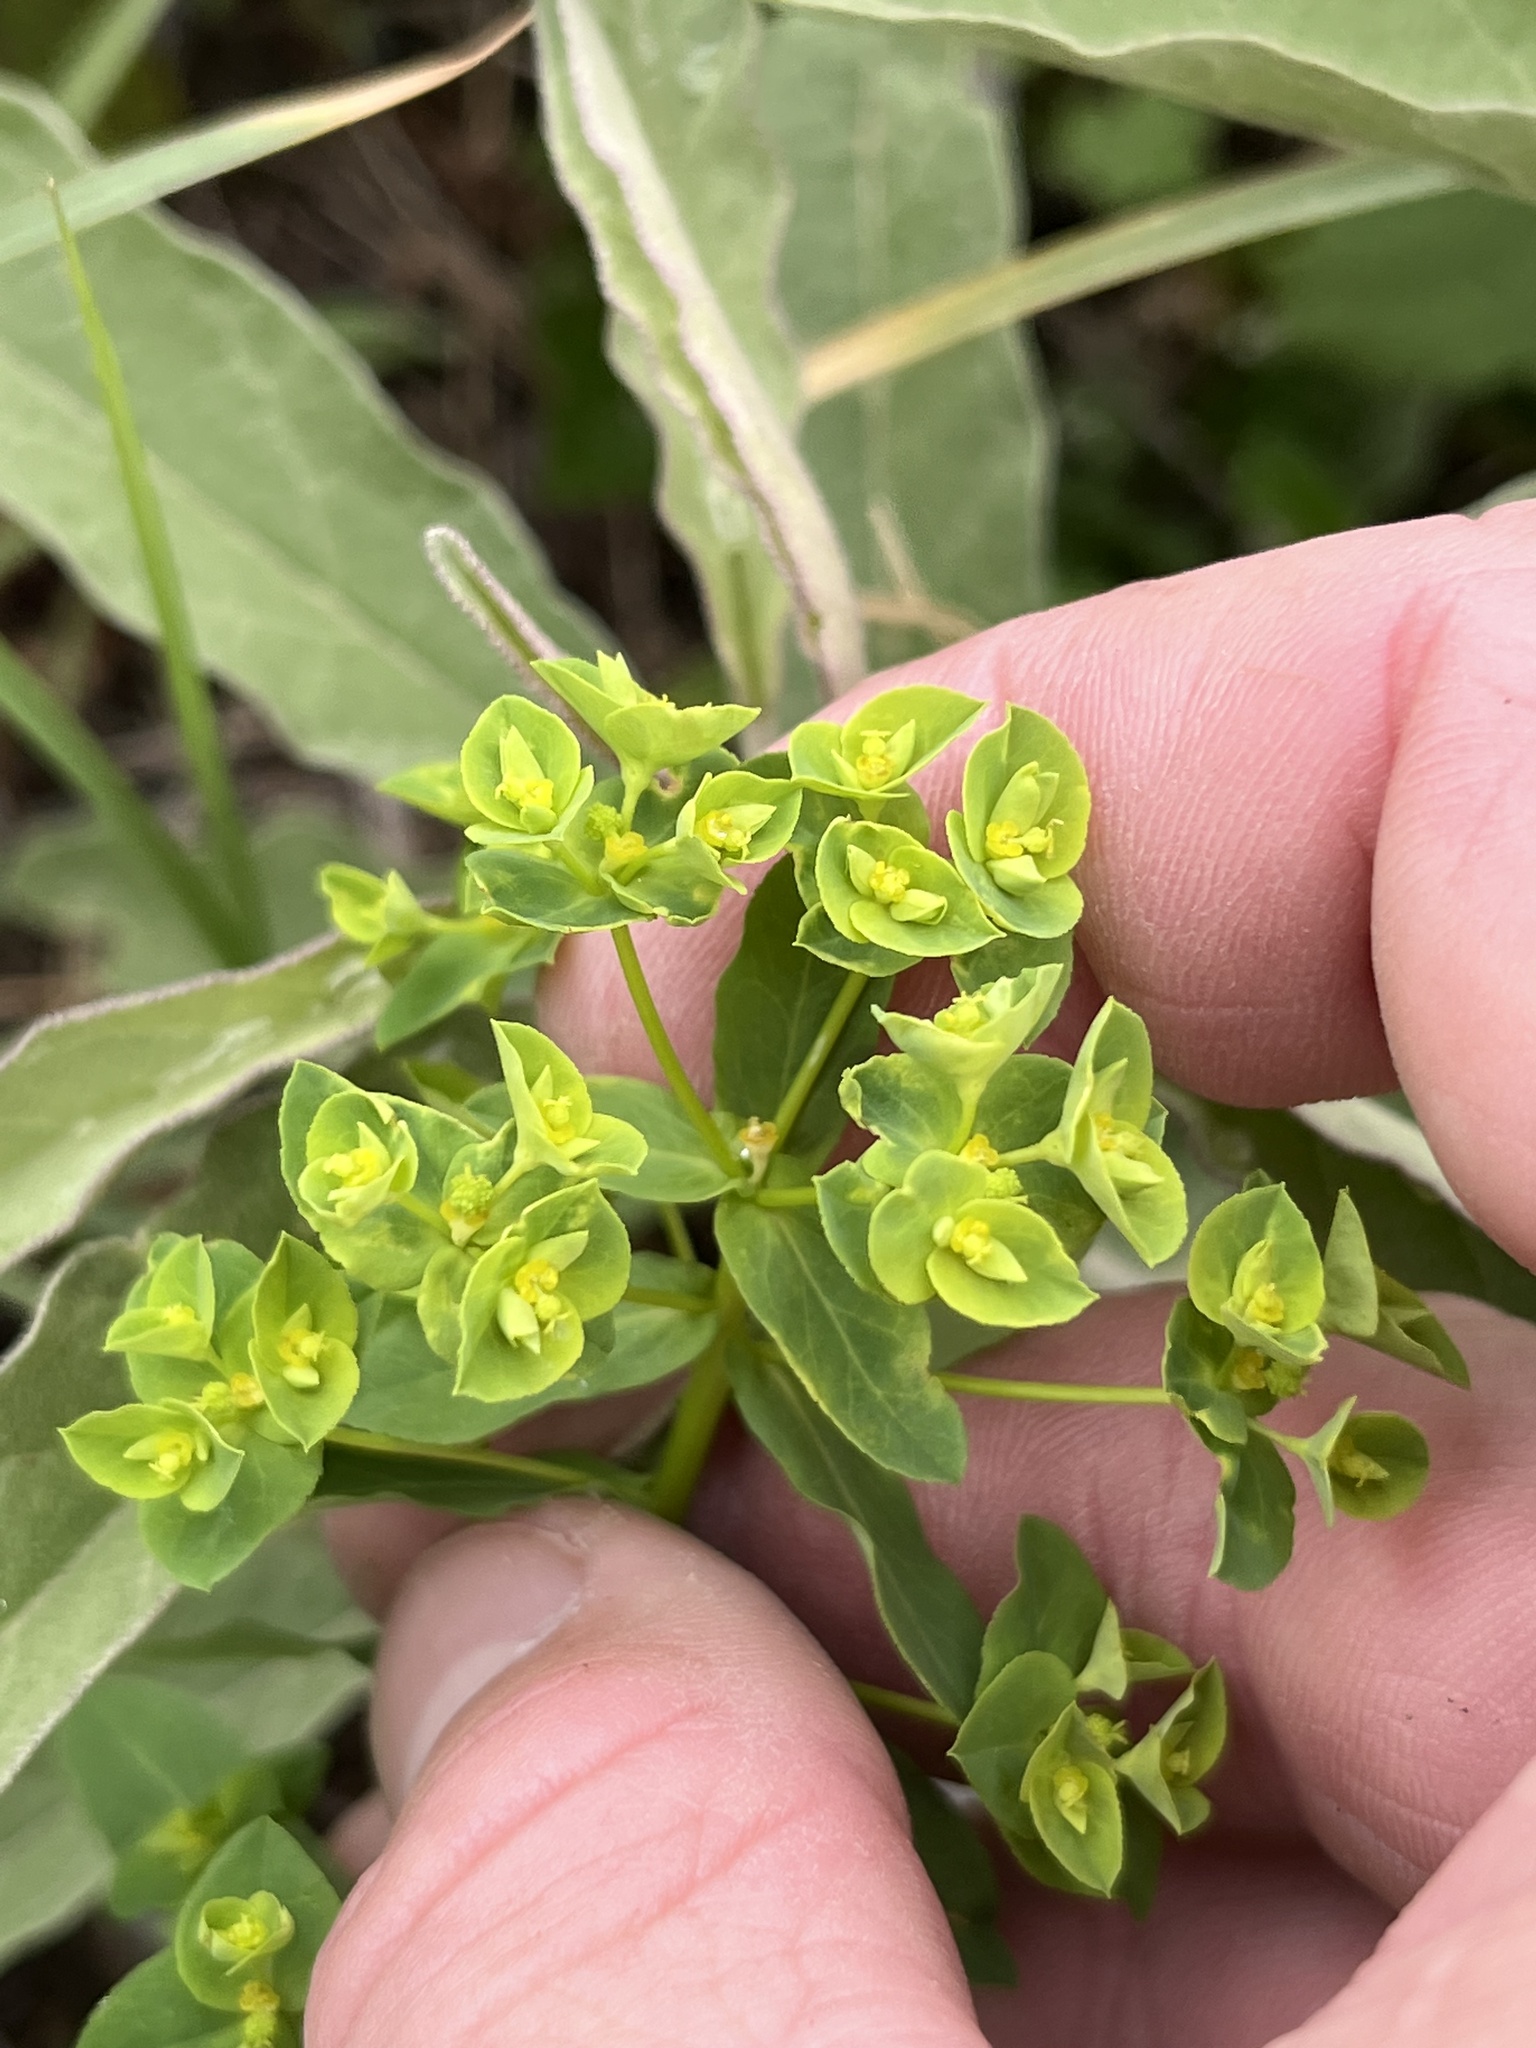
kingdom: Plantae
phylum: Tracheophyta
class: Magnoliopsida
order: Malpighiales
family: Euphorbiaceae
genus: Euphorbia
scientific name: Euphorbia spathulata
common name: Blunt spurge
